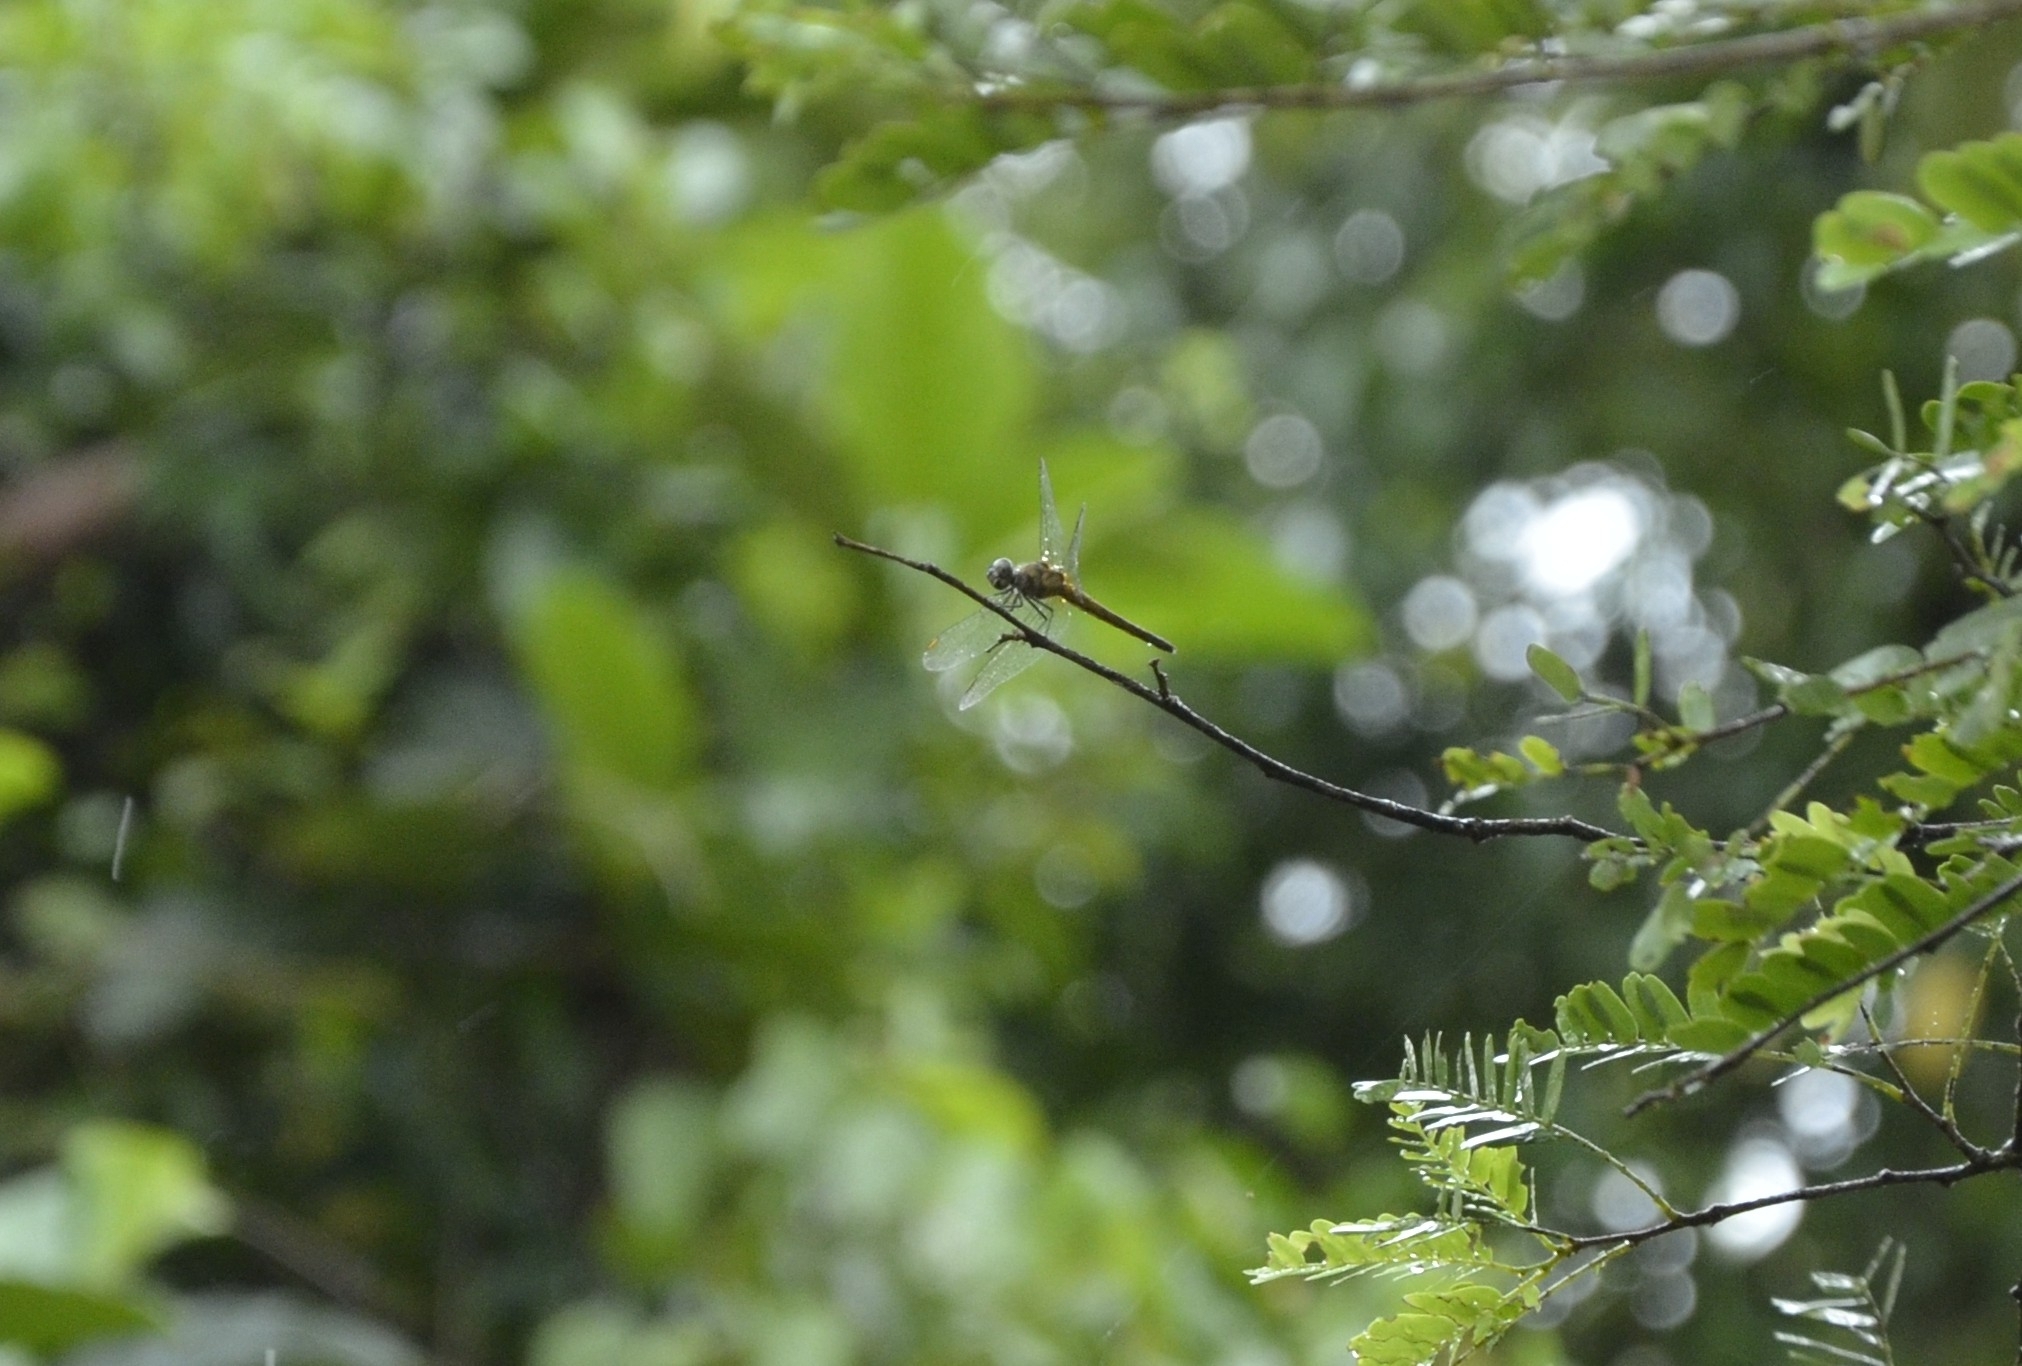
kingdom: Animalia
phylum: Arthropoda
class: Insecta
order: Odonata
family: Libellulidae
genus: Brachydiplax
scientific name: Brachydiplax chalybea
